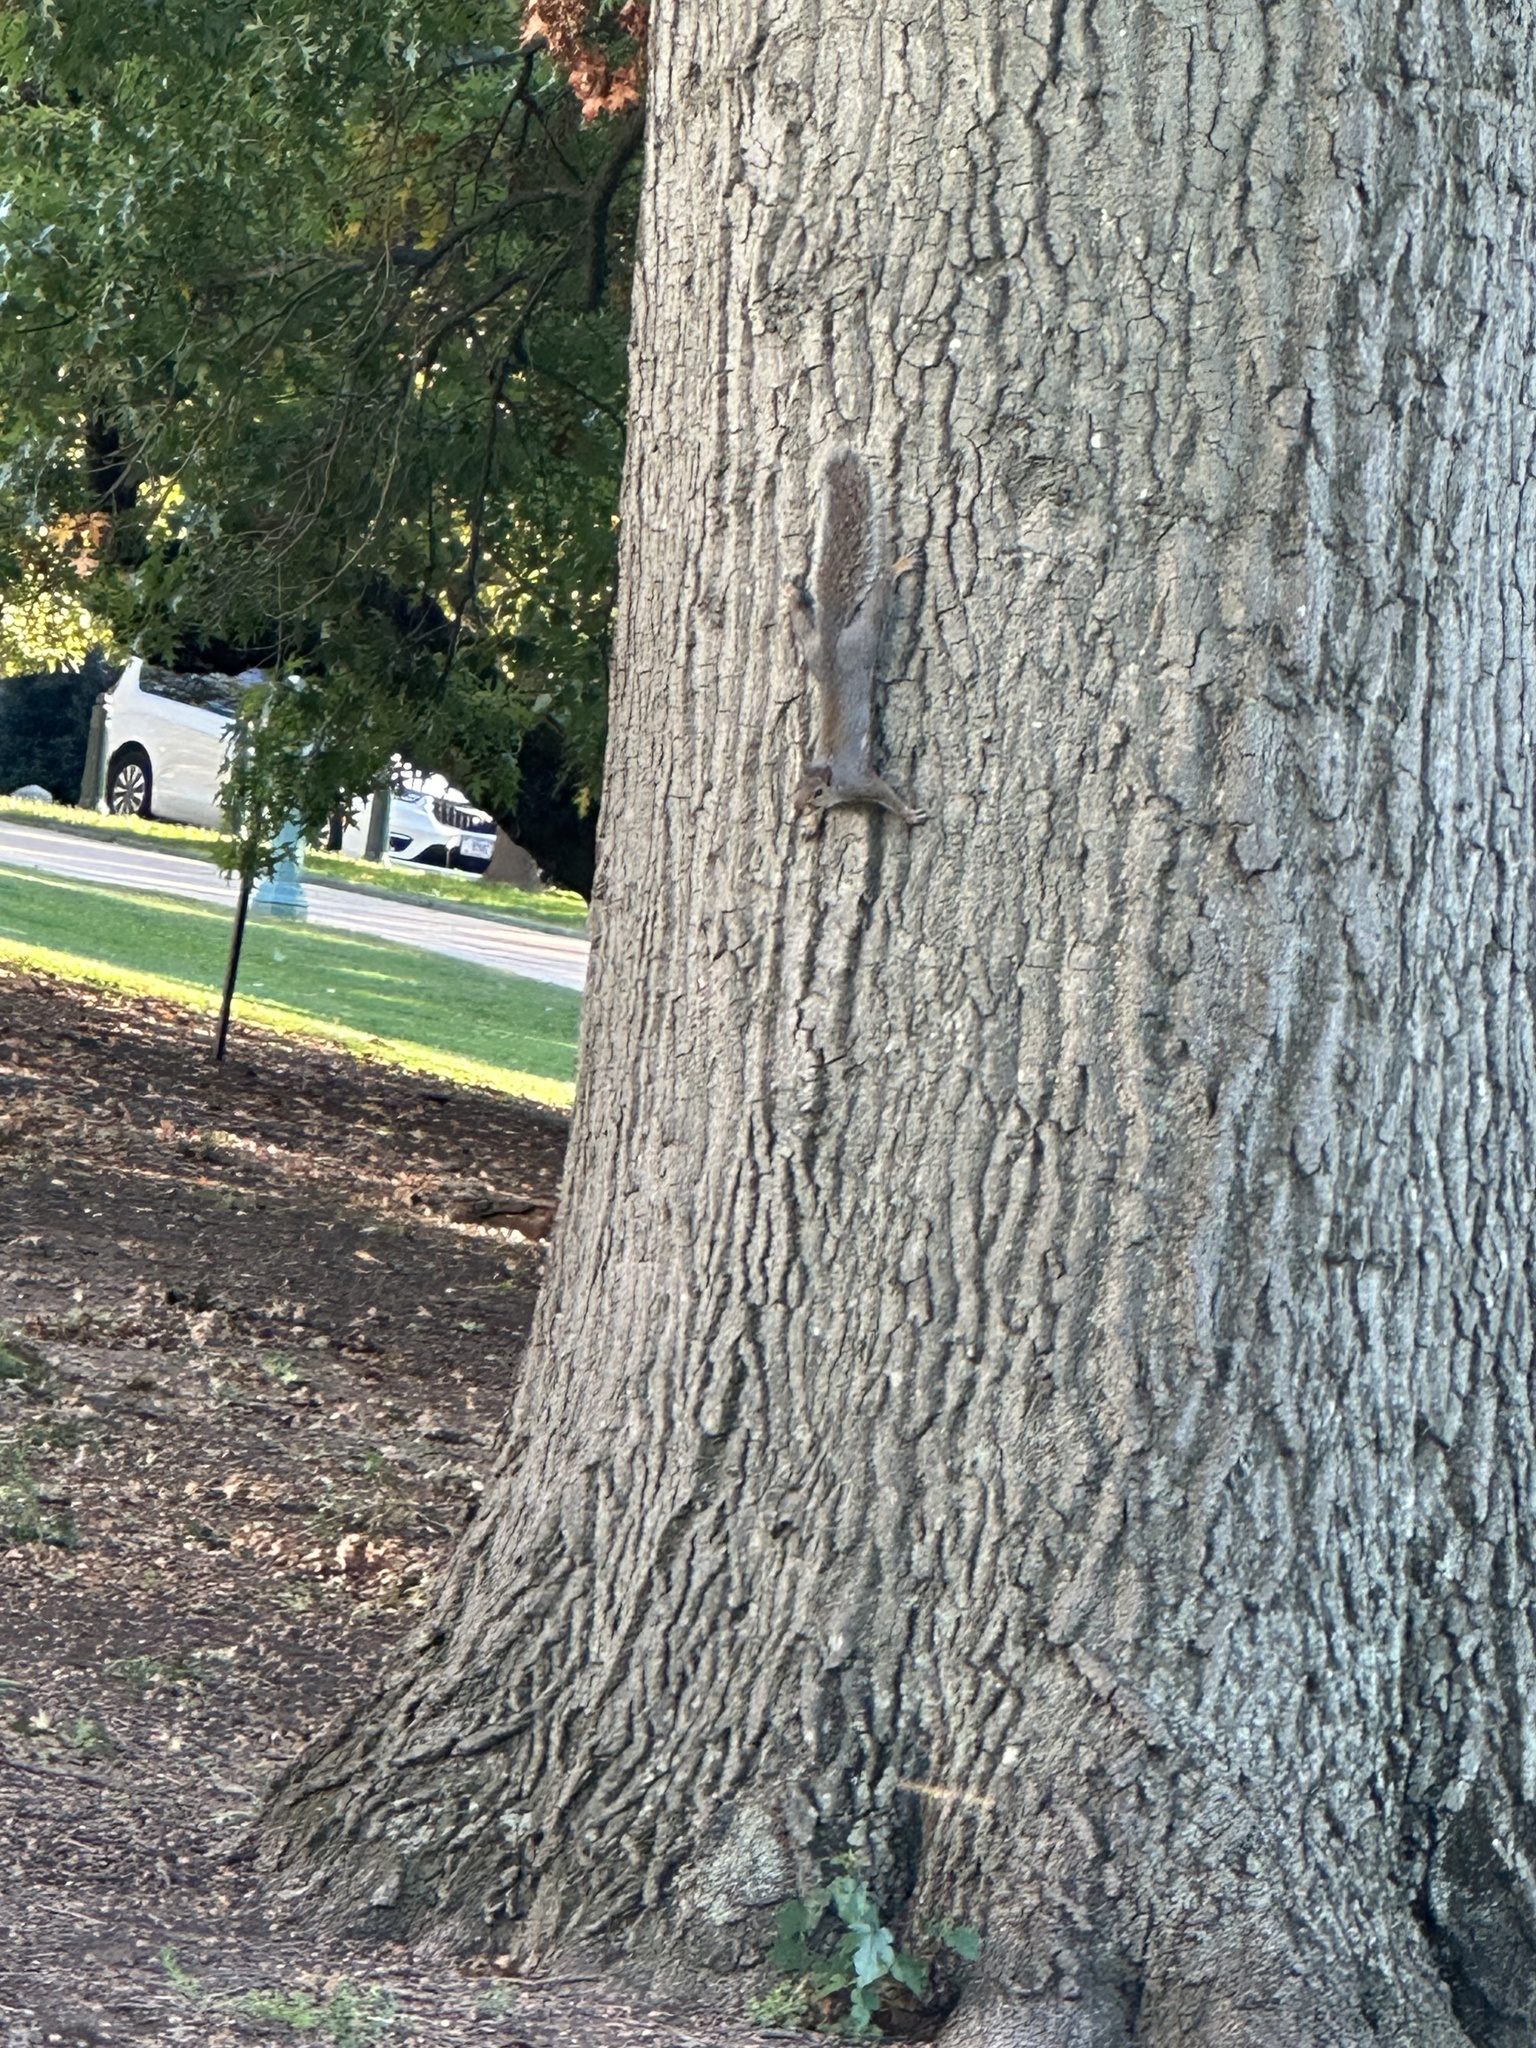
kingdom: Animalia
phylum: Chordata
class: Mammalia
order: Rodentia
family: Sciuridae
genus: Sciurus
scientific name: Sciurus carolinensis
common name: Eastern gray squirrel
